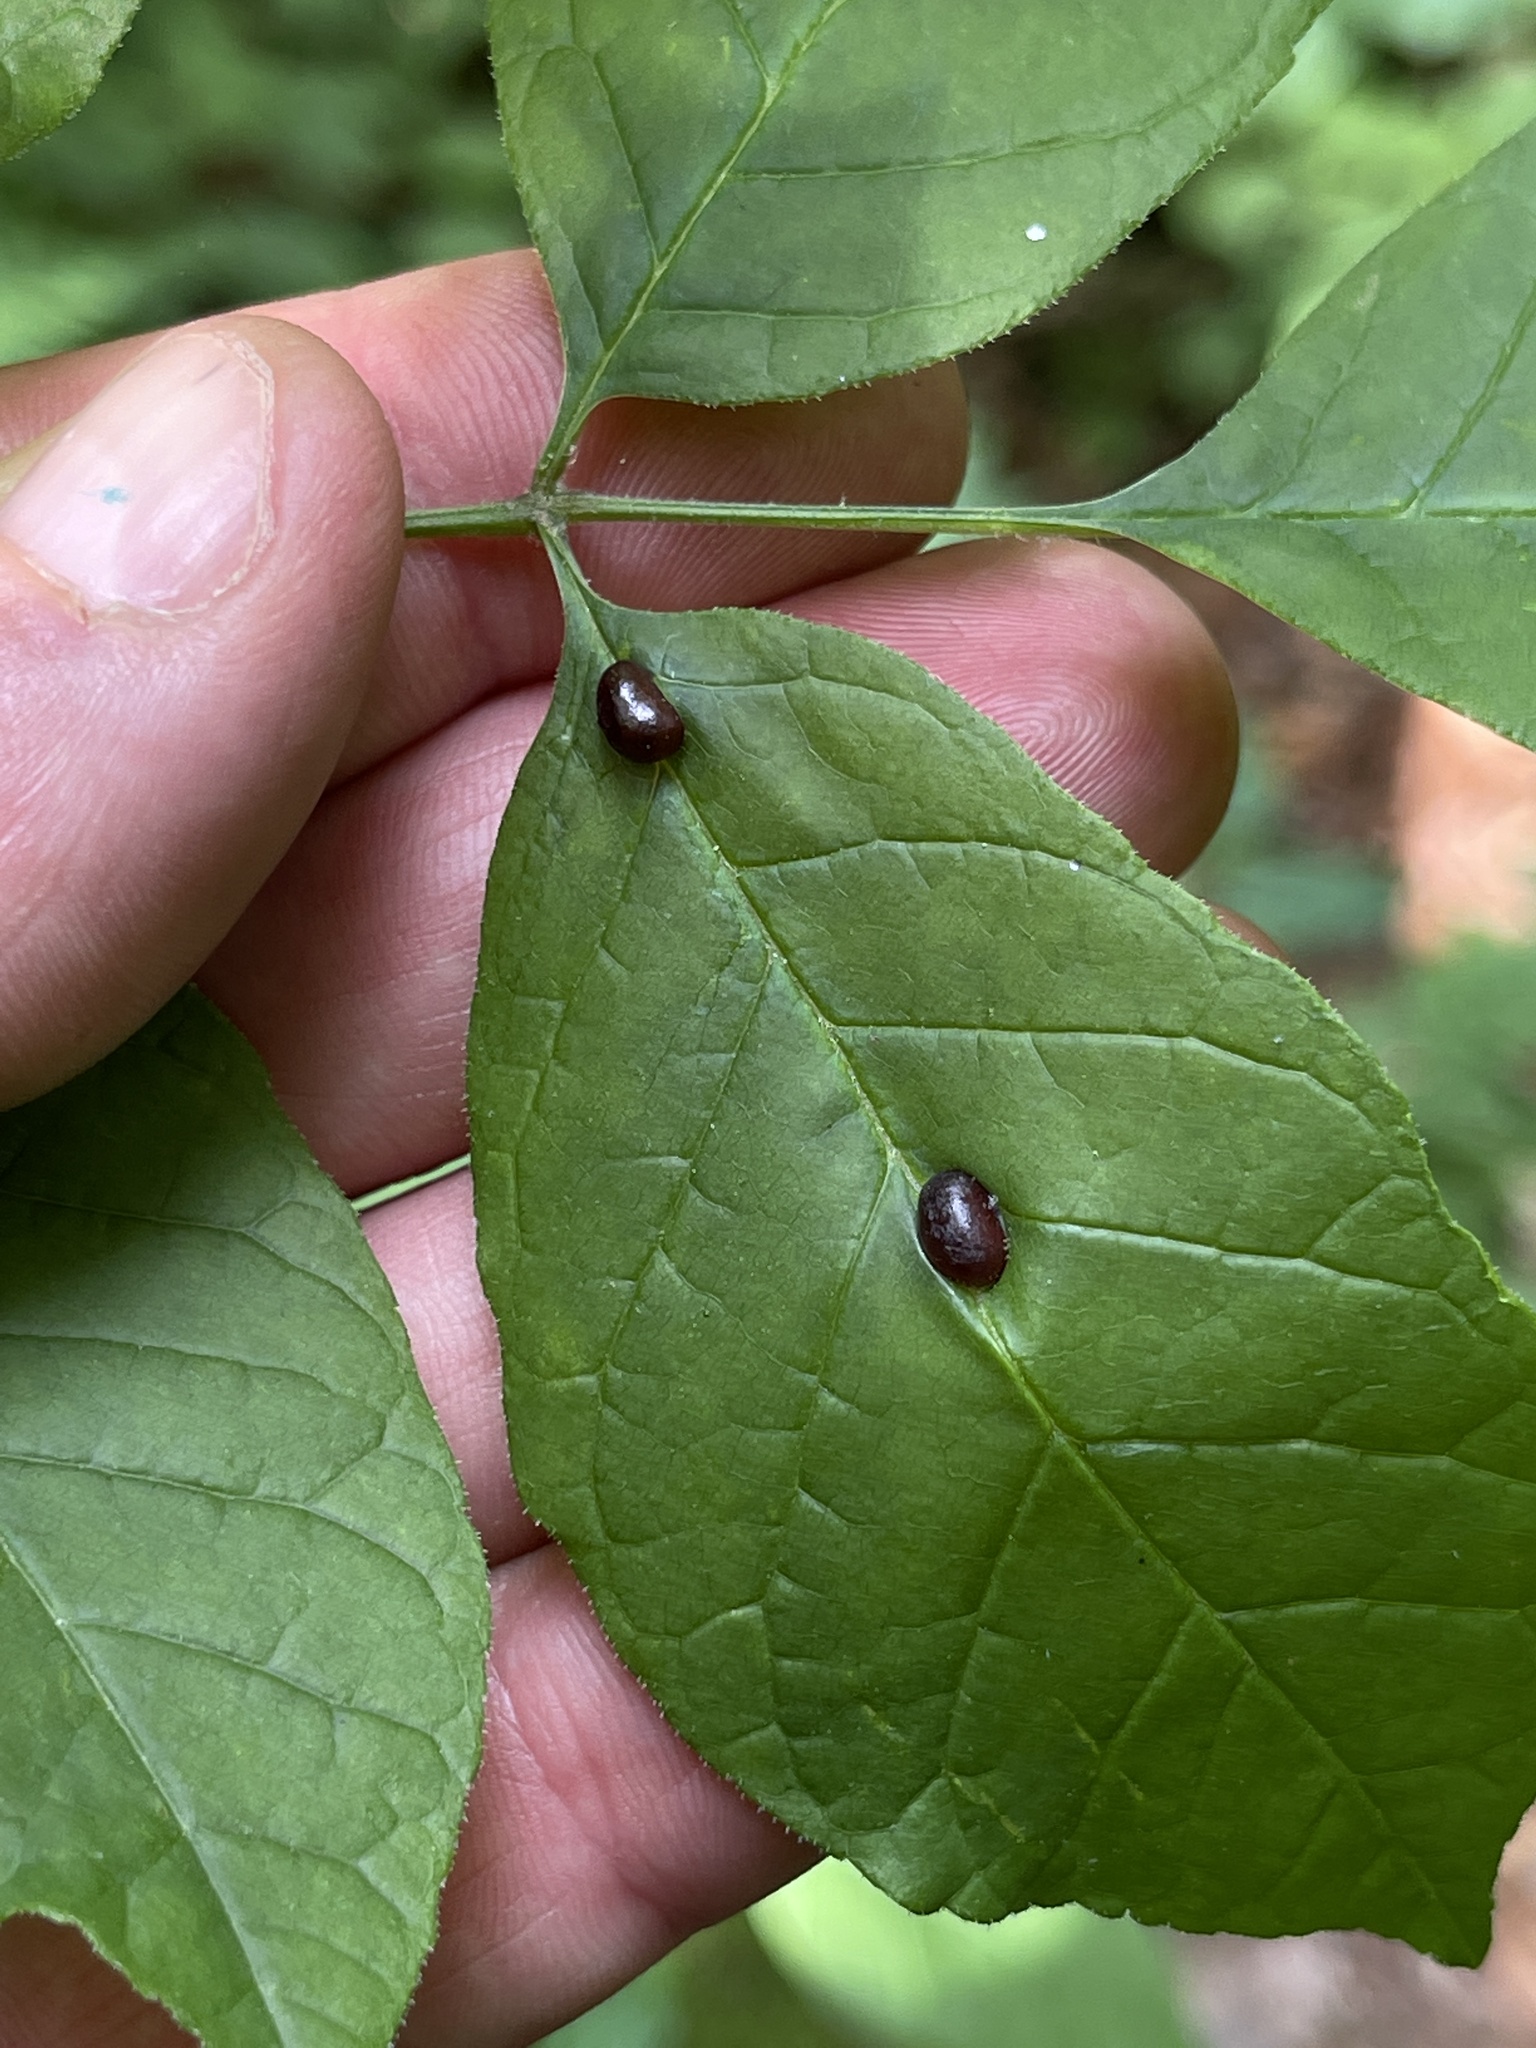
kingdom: Animalia
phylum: Arthropoda
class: Insecta
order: Diptera
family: Cecidomyiidae
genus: Dasineura
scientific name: Dasineura pellex
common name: Ash bullet gall midge
